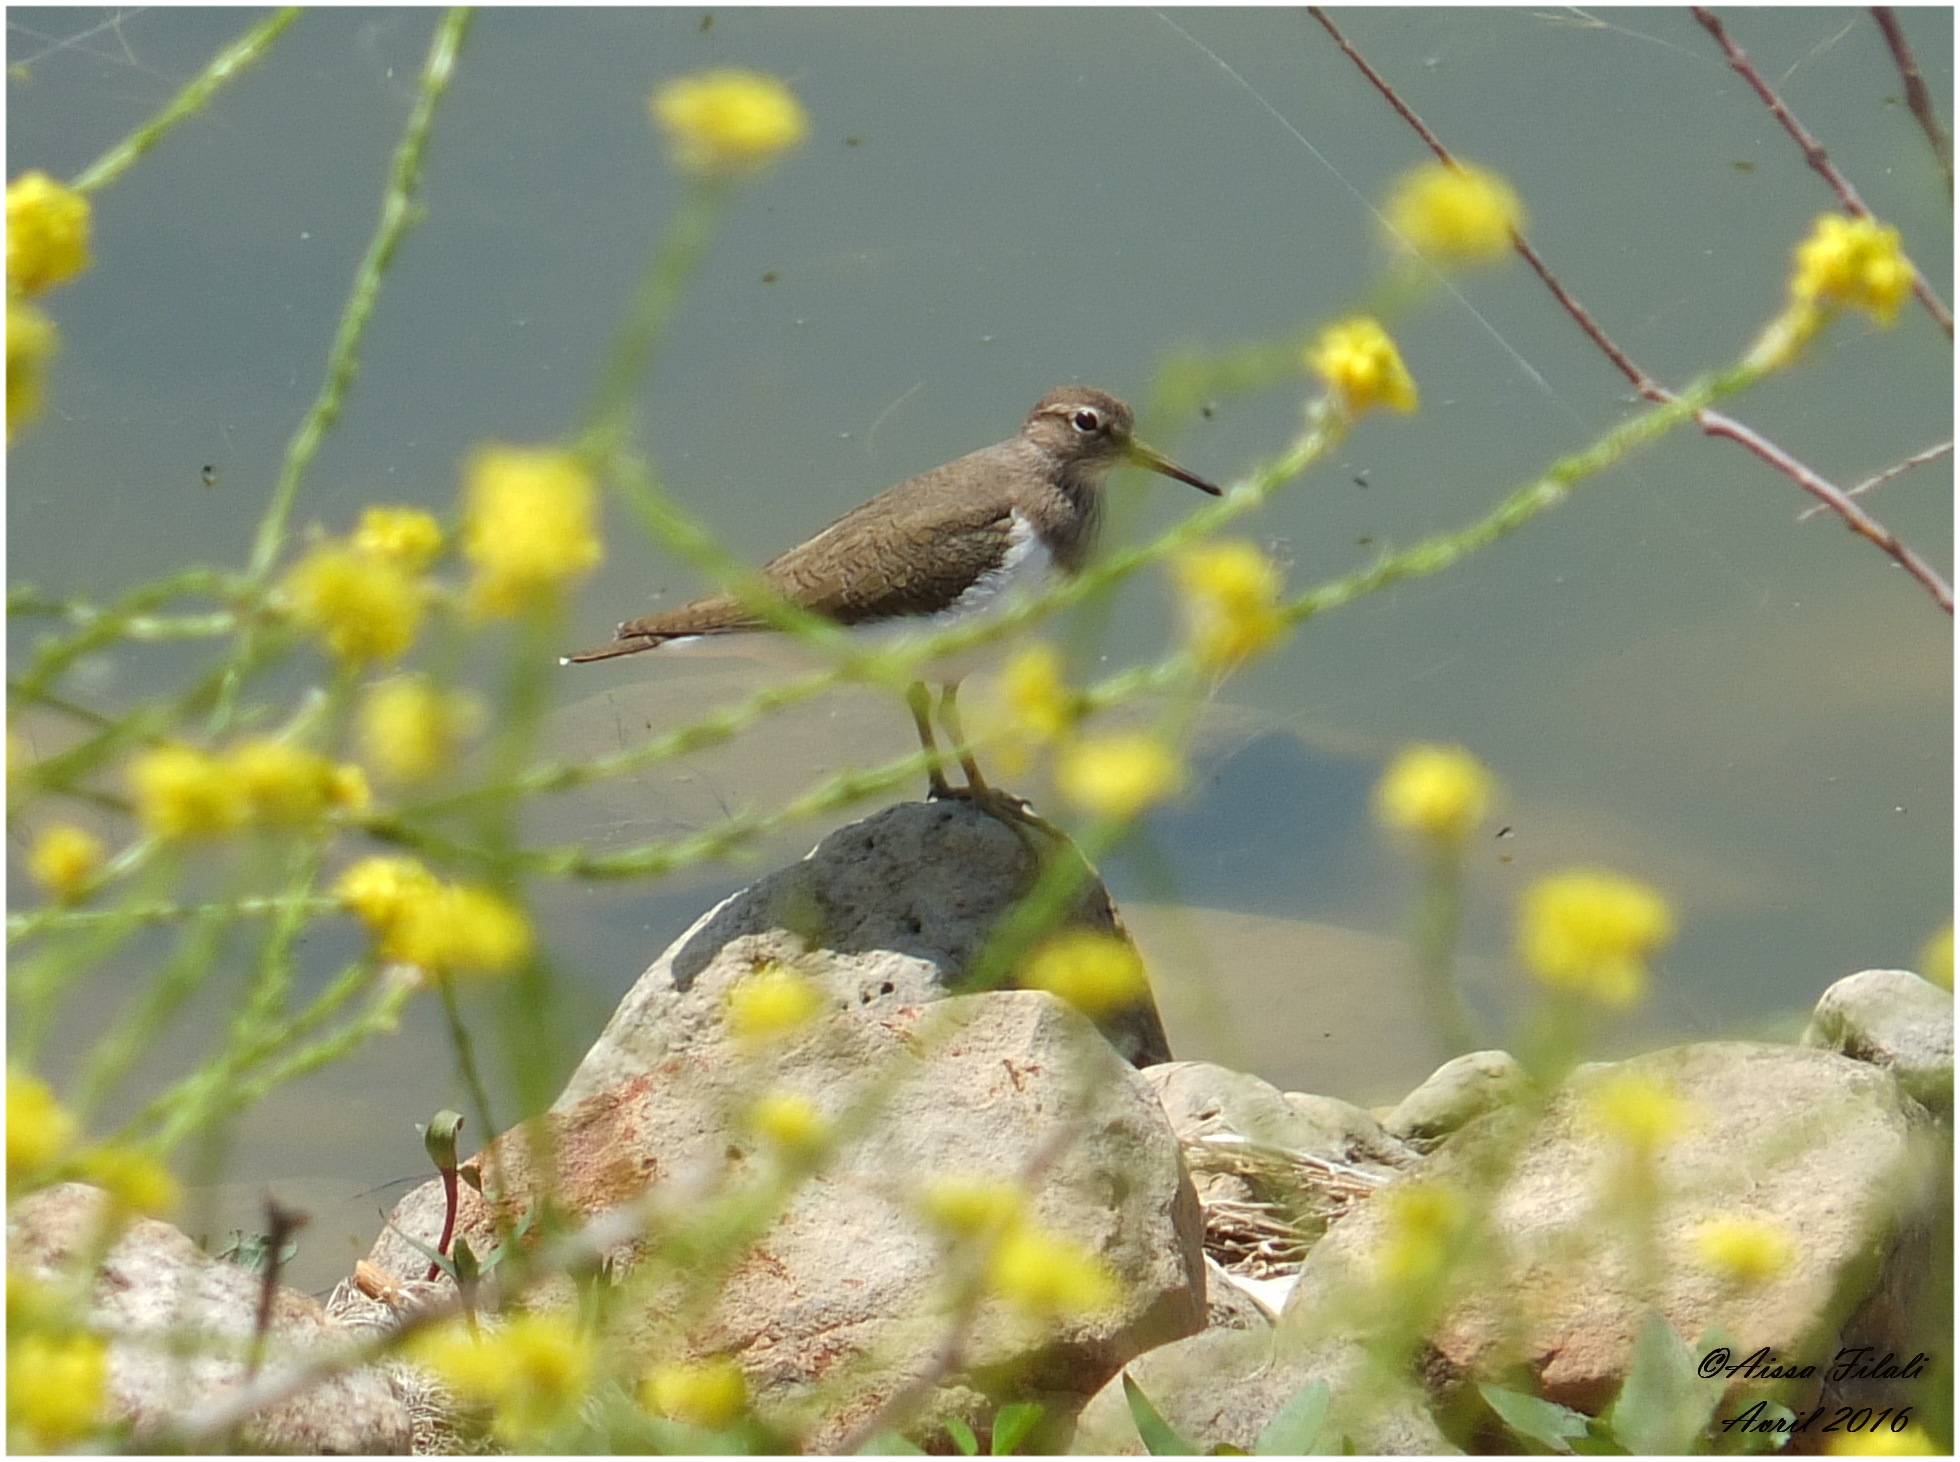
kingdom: Animalia
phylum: Chordata
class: Aves
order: Charadriiformes
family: Scolopacidae
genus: Actitis
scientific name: Actitis hypoleucos
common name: Common sandpiper
